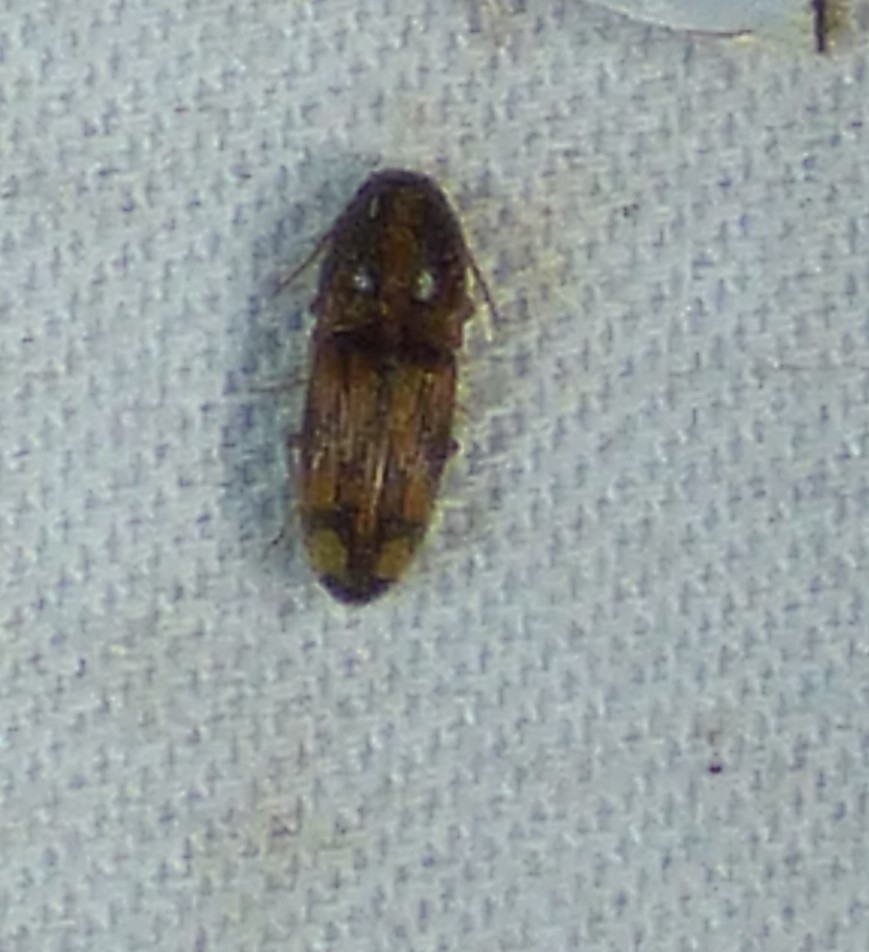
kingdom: Animalia
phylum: Arthropoda
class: Insecta
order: Coleoptera
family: Elateridae
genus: Monocrepidius
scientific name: Monocrepidius bellus
